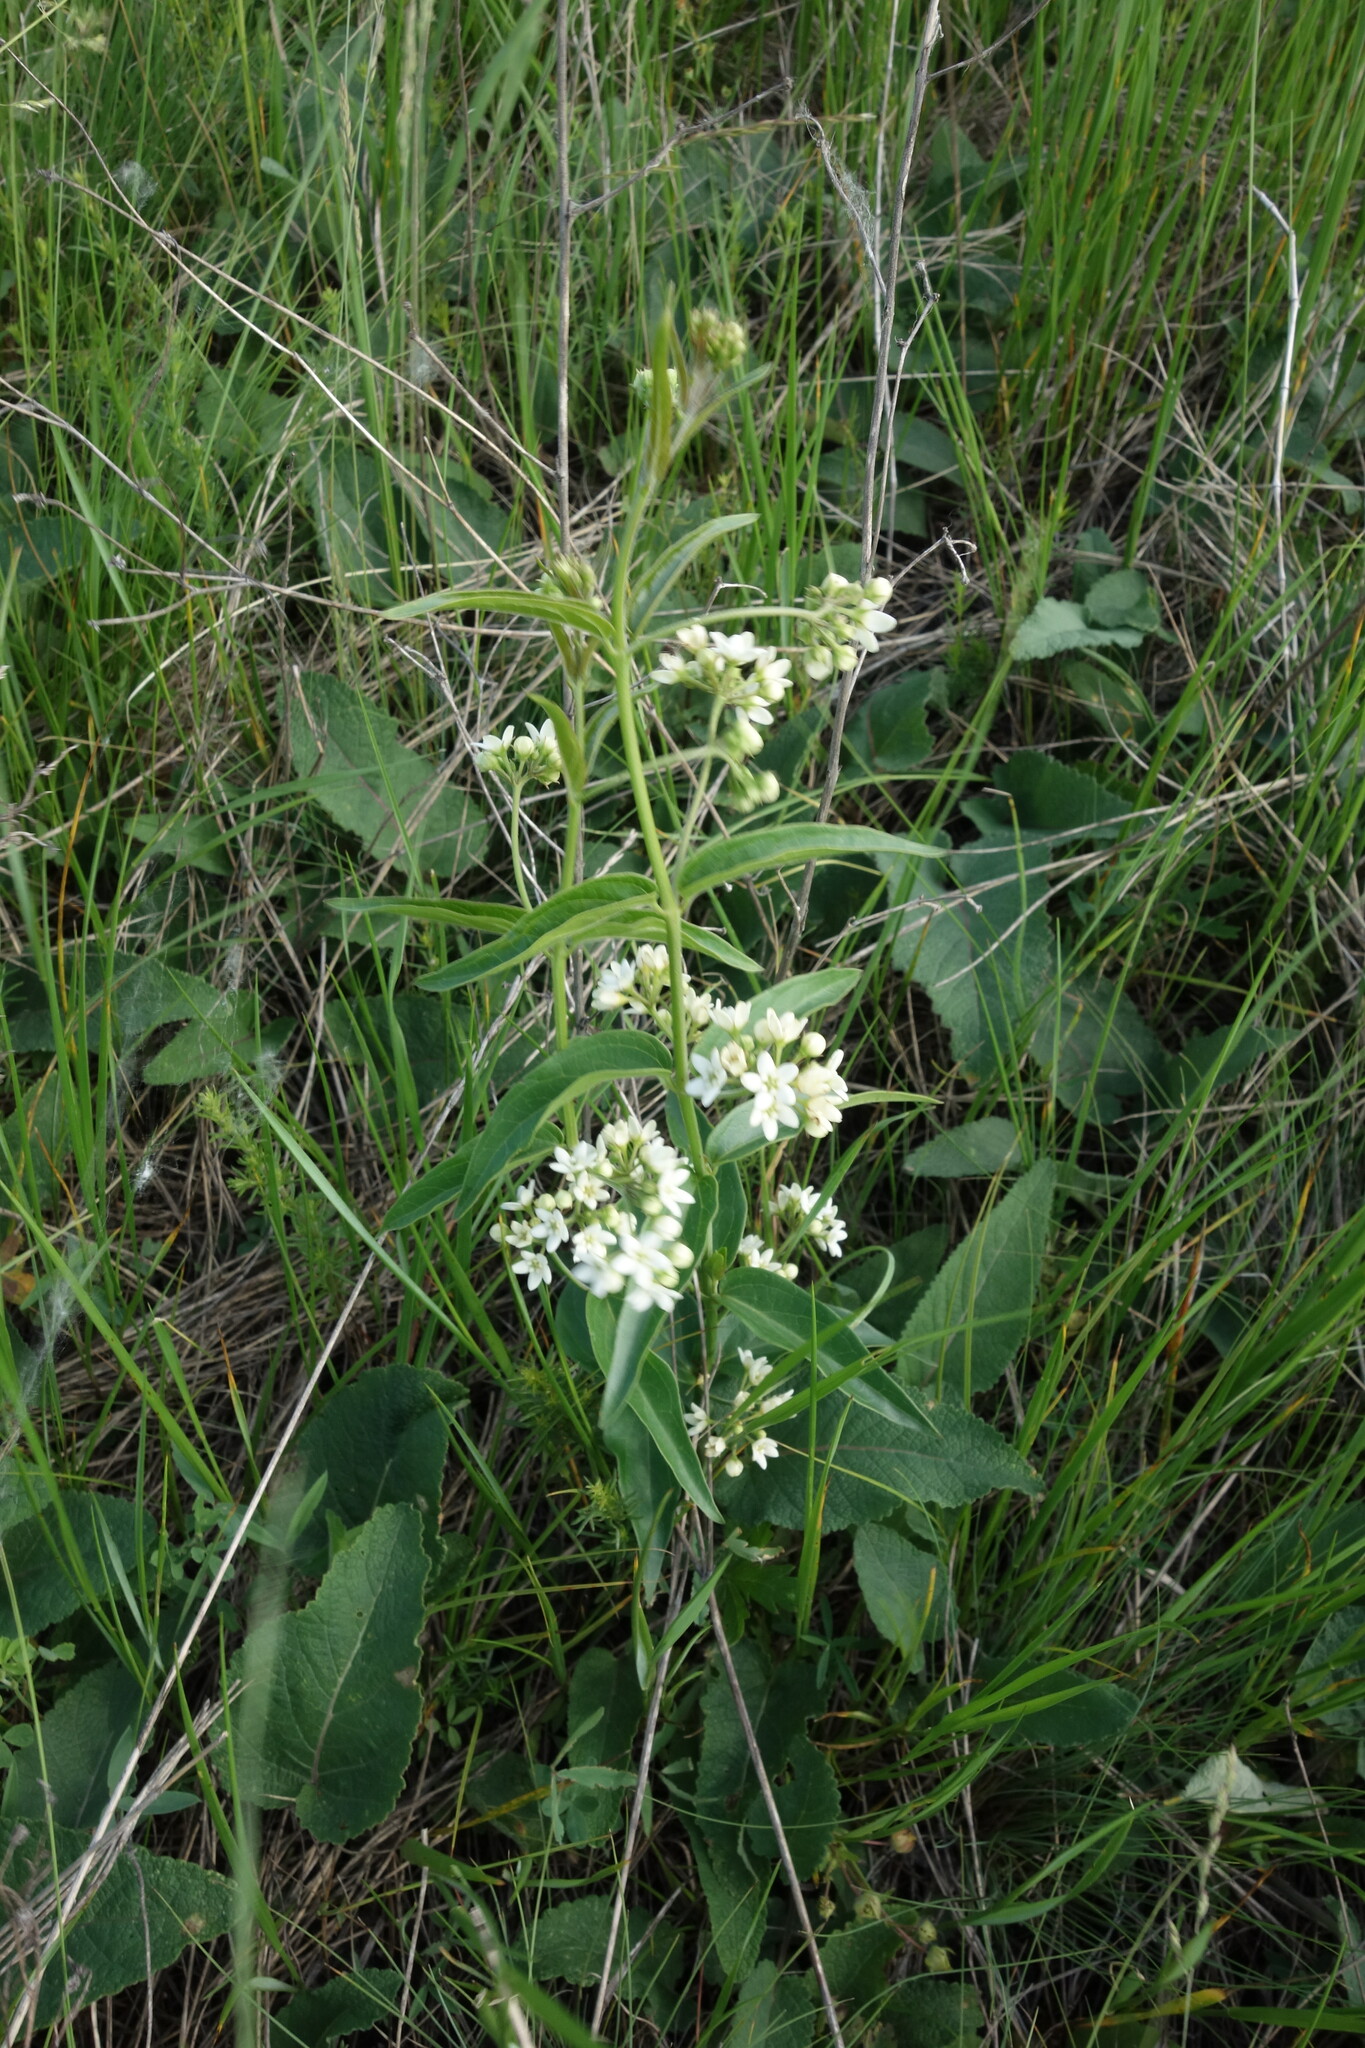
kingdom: Plantae
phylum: Tracheophyta
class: Magnoliopsida
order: Gentianales
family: Apocynaceae
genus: Vincetoxicum
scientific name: Vincetoxicum hirundinaria
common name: White swallowwort
